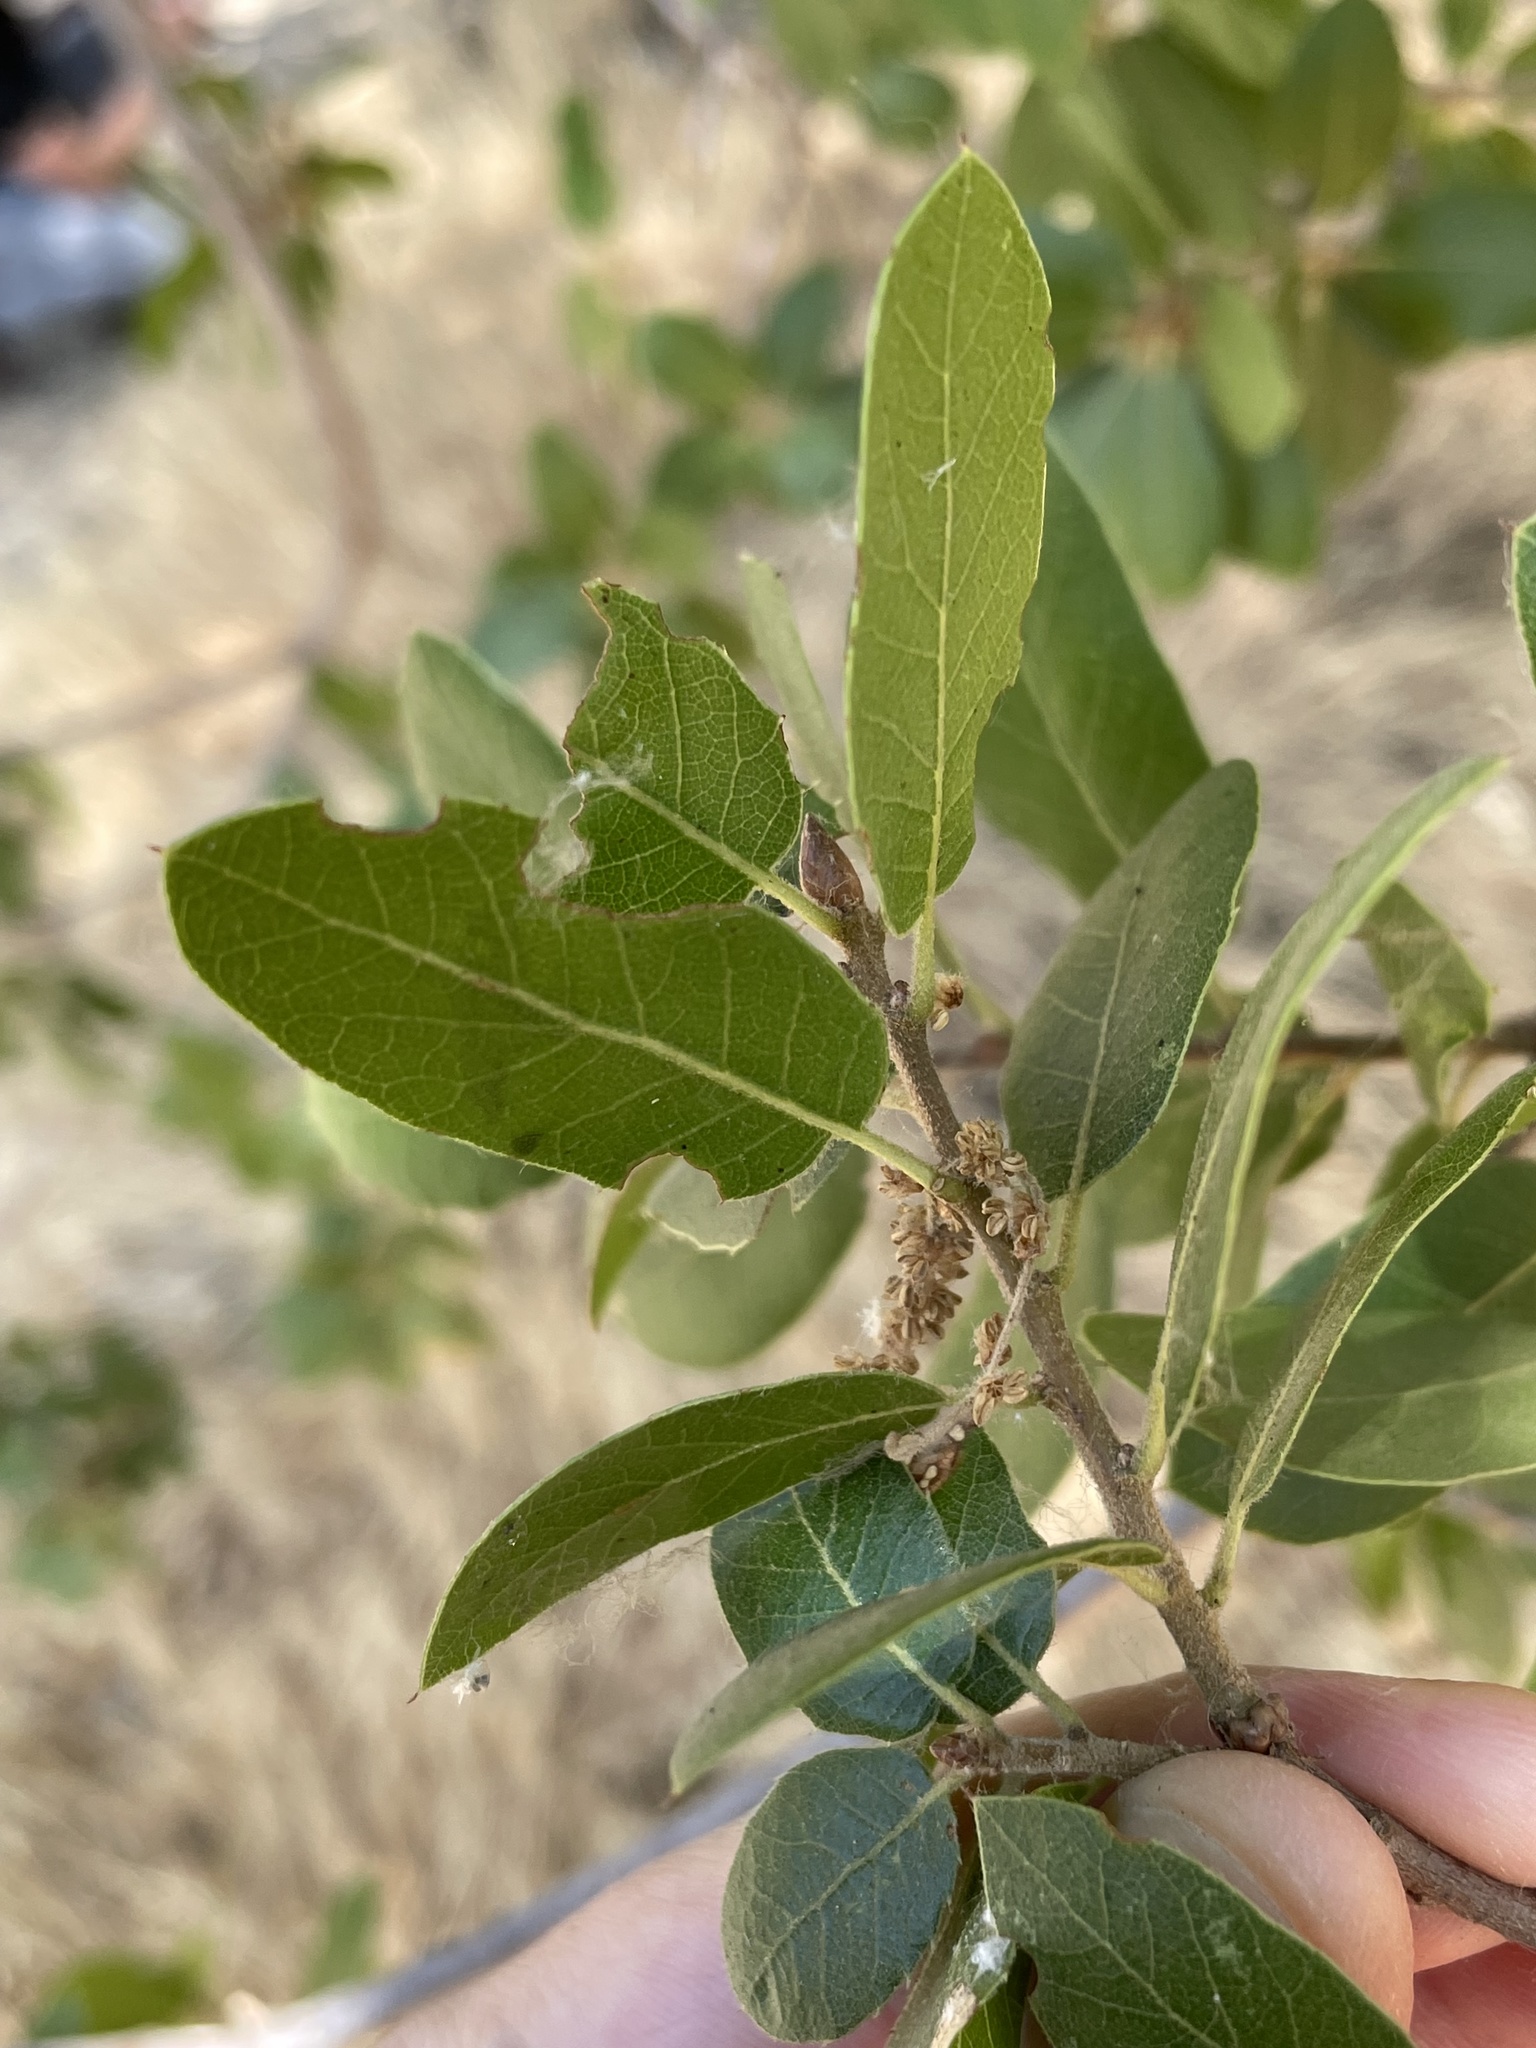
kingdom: Plantae
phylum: Tracheophyta
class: Magnoliopsida
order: Fagales
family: Fagaceae
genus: Quercus
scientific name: Quercus wislizeni
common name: Interior live oak
